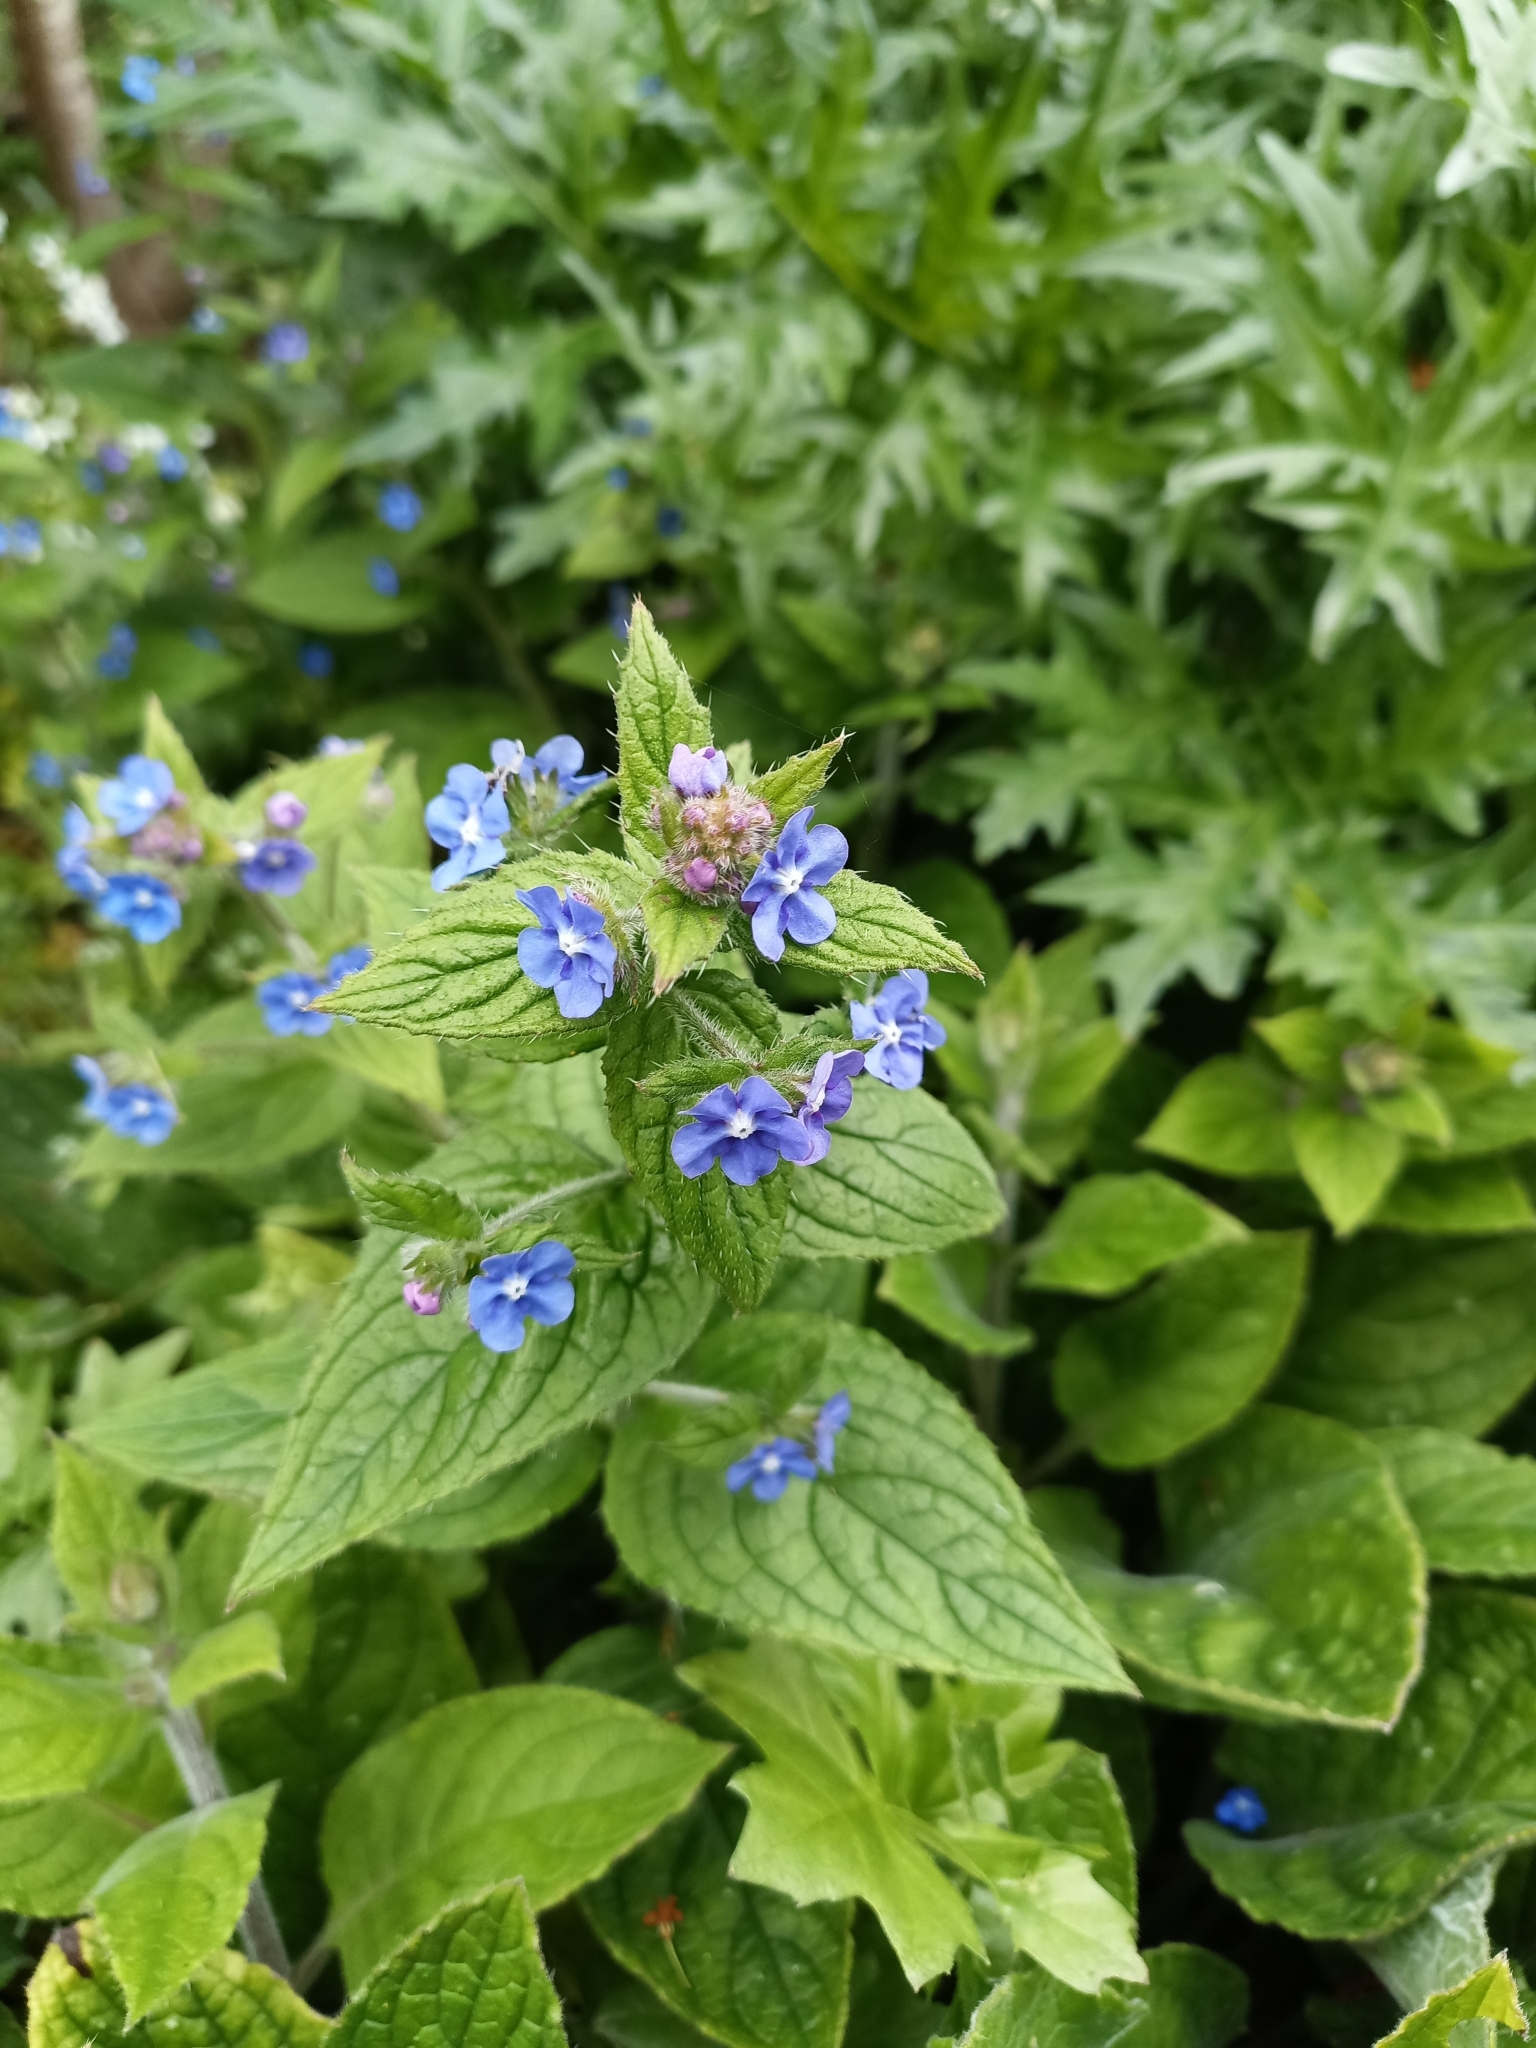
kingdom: Plantae
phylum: Tracheophyta
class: Magnoliopsida
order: Boraginales
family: Boraginaceae
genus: Pentaglottis
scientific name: Pentaglottis sempervirens
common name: Green alkanet
